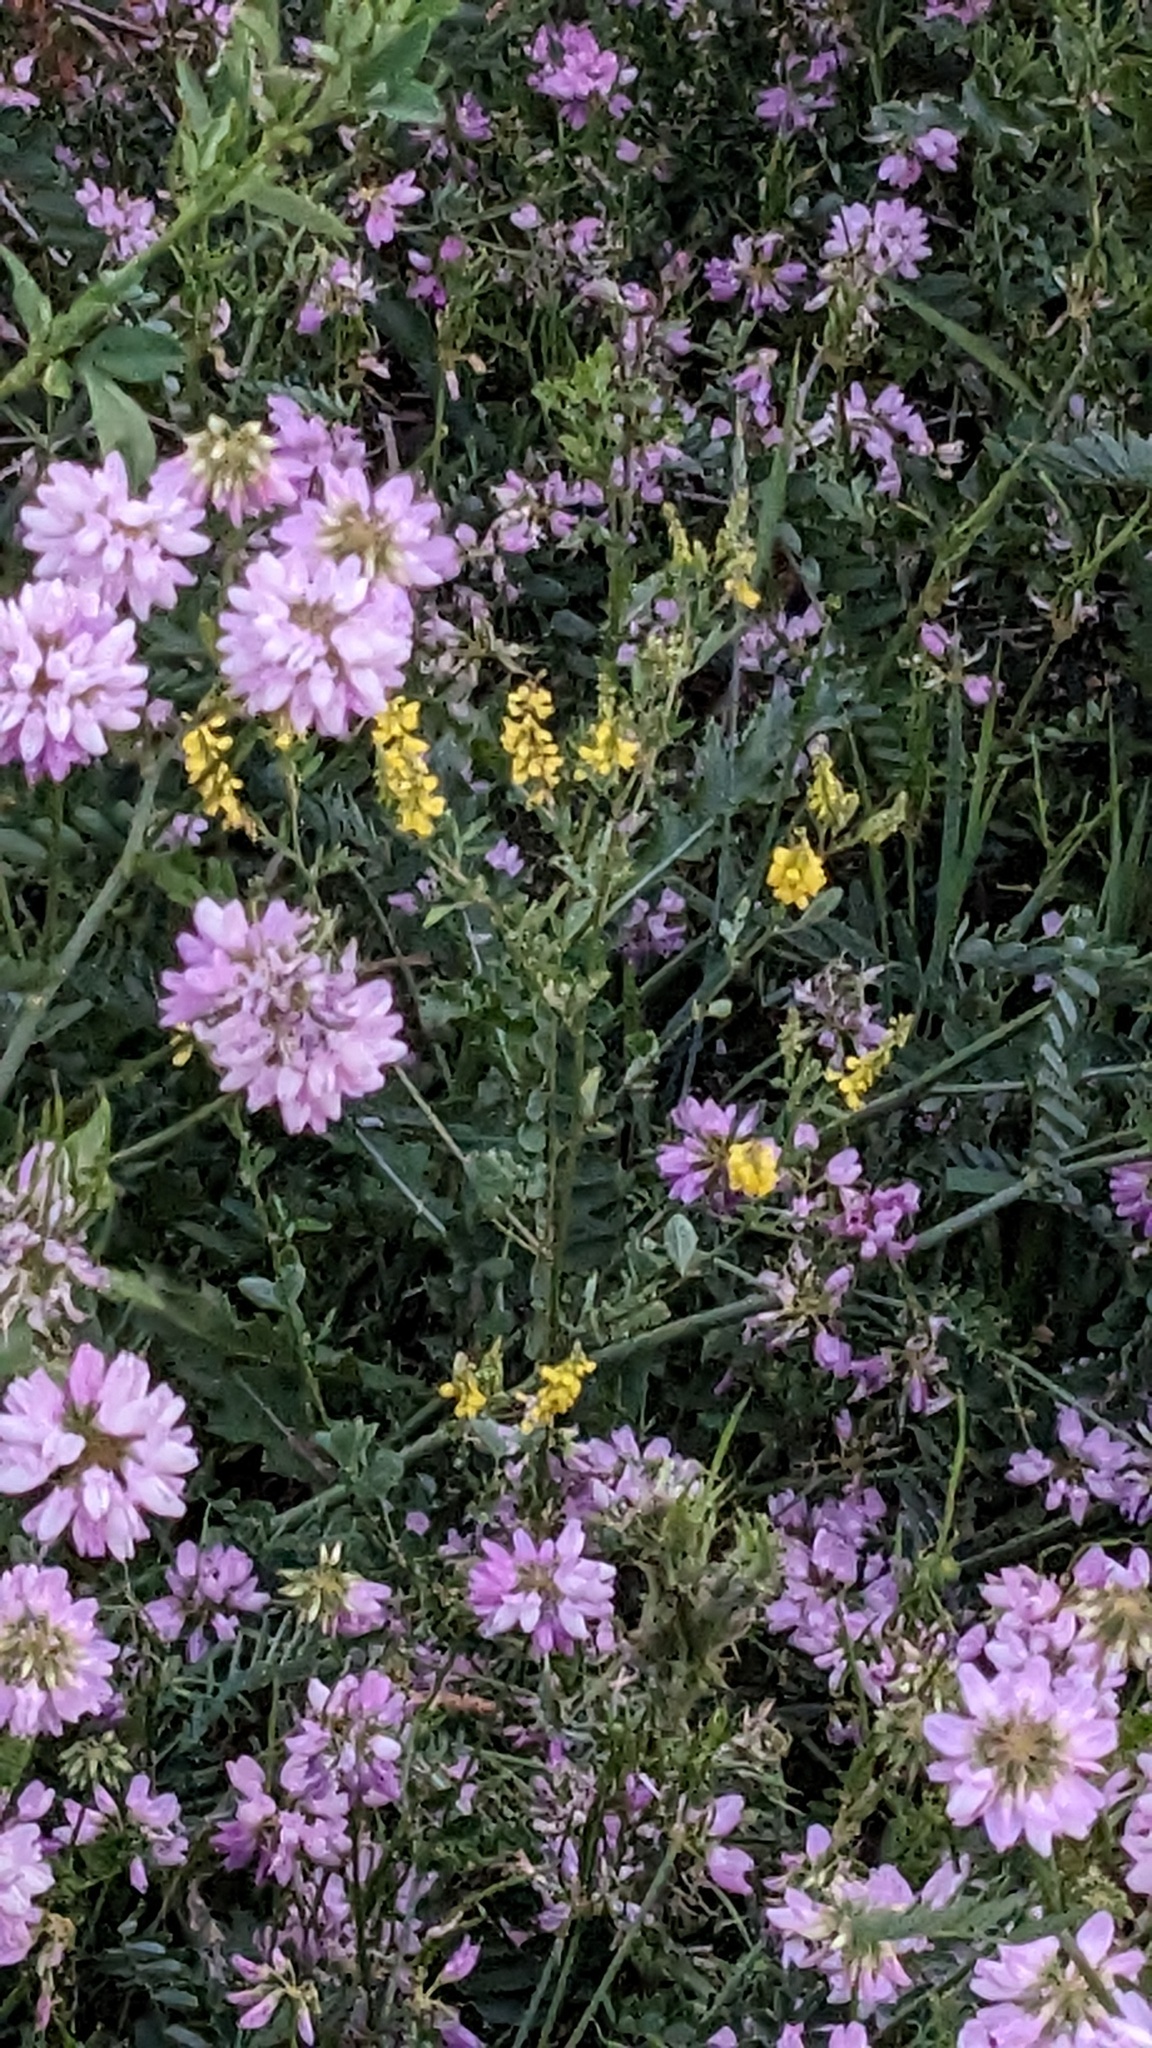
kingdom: Plantae
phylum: Tracheophyta
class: Magnoliopsida
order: Fabales
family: Fabaceae
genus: Melilotus
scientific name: Melilotus officinalis
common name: Sweetclover
